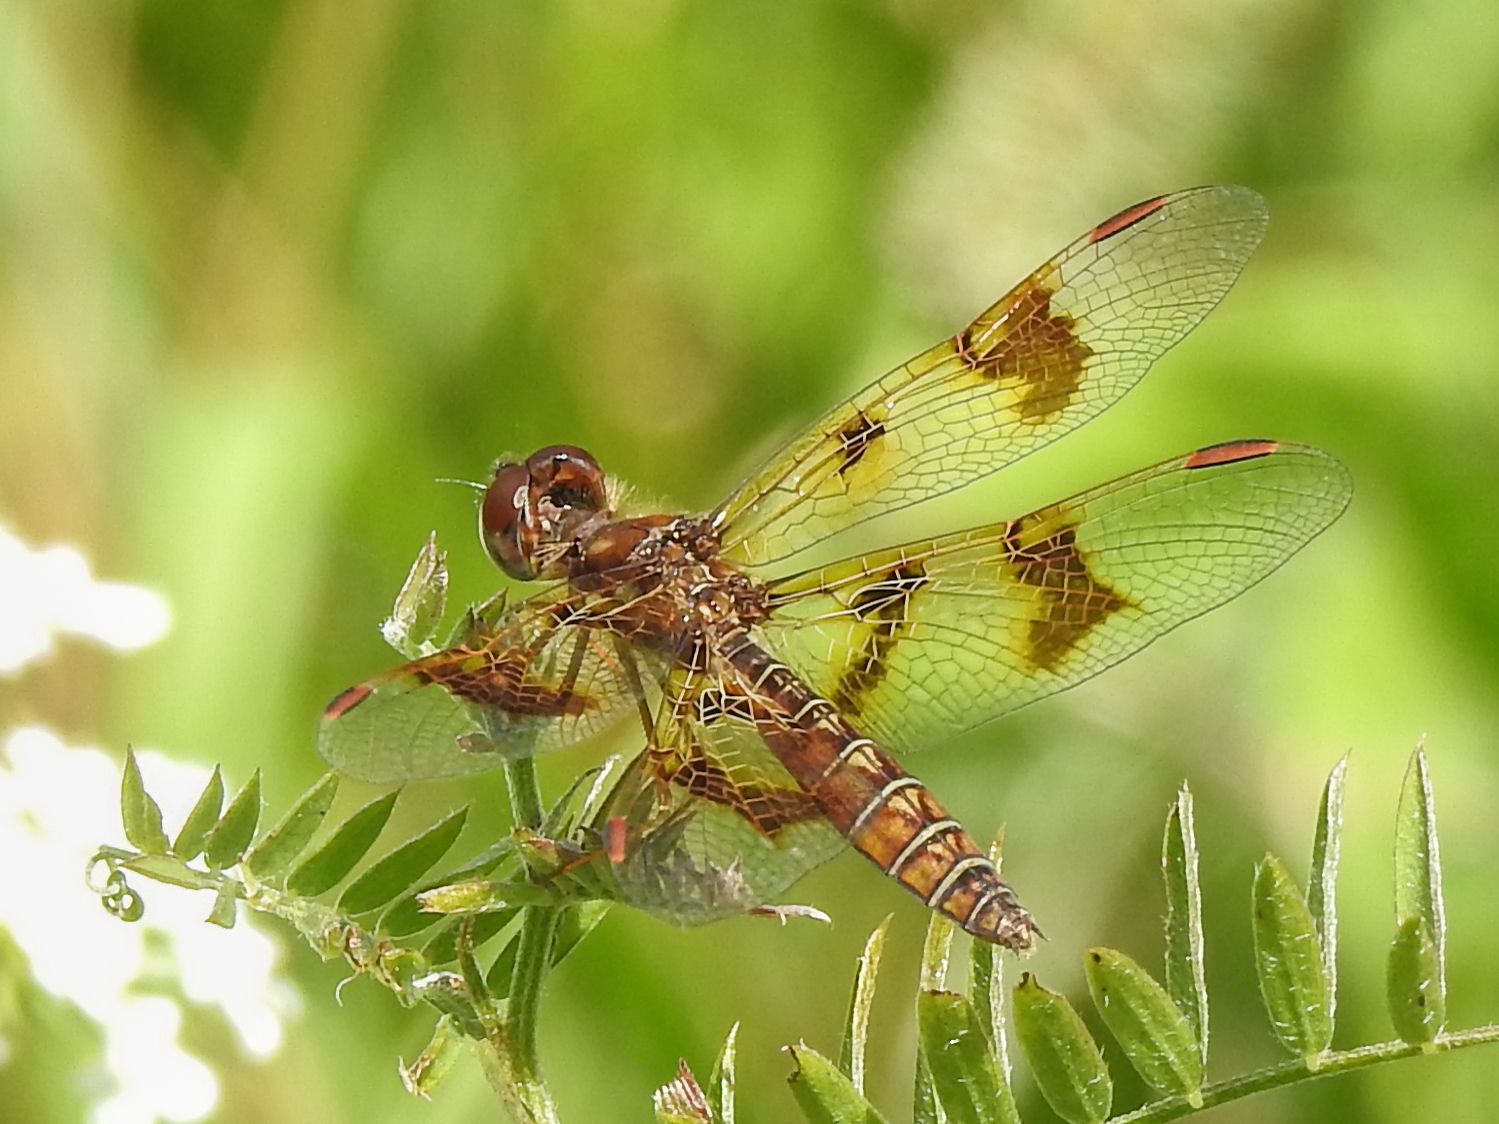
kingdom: Animalia
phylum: Arthropoda
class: Insecta
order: Odonata
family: Libellulidae
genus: Perithemis
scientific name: Perithemis tenera
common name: Eastern amberwing
